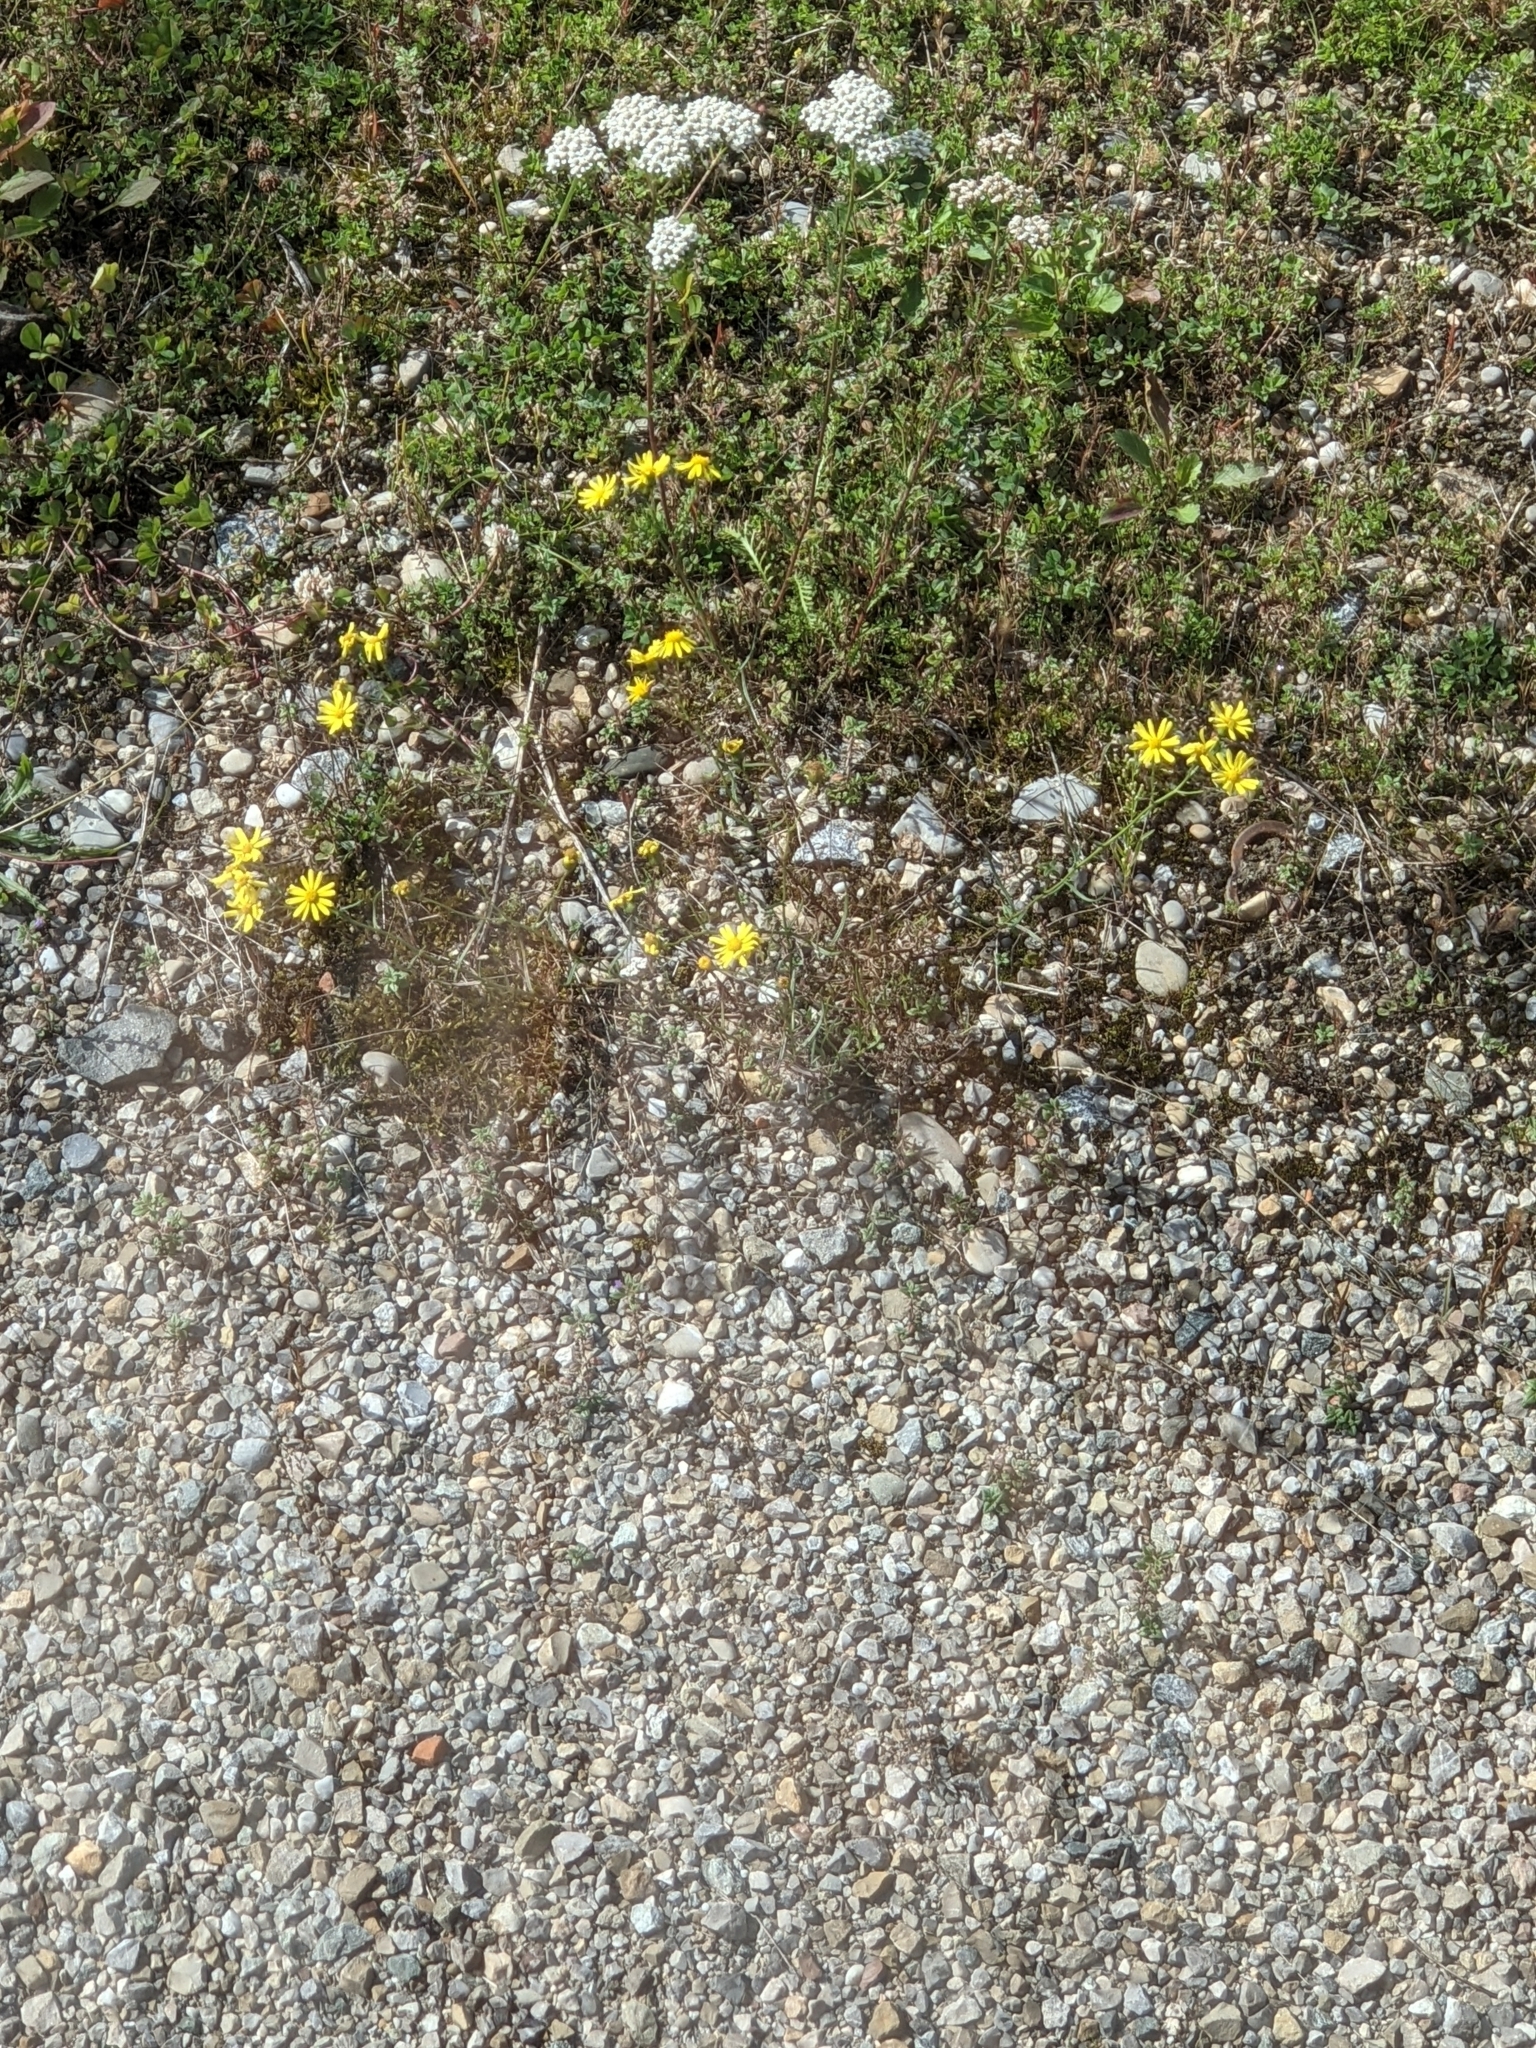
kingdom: Plantae
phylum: Tracheophyta
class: Magnoliopsida
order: Asterales
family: Asteraceae
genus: Senecio
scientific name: Senecio inaequidens
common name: Narrow-leaved ragwort
